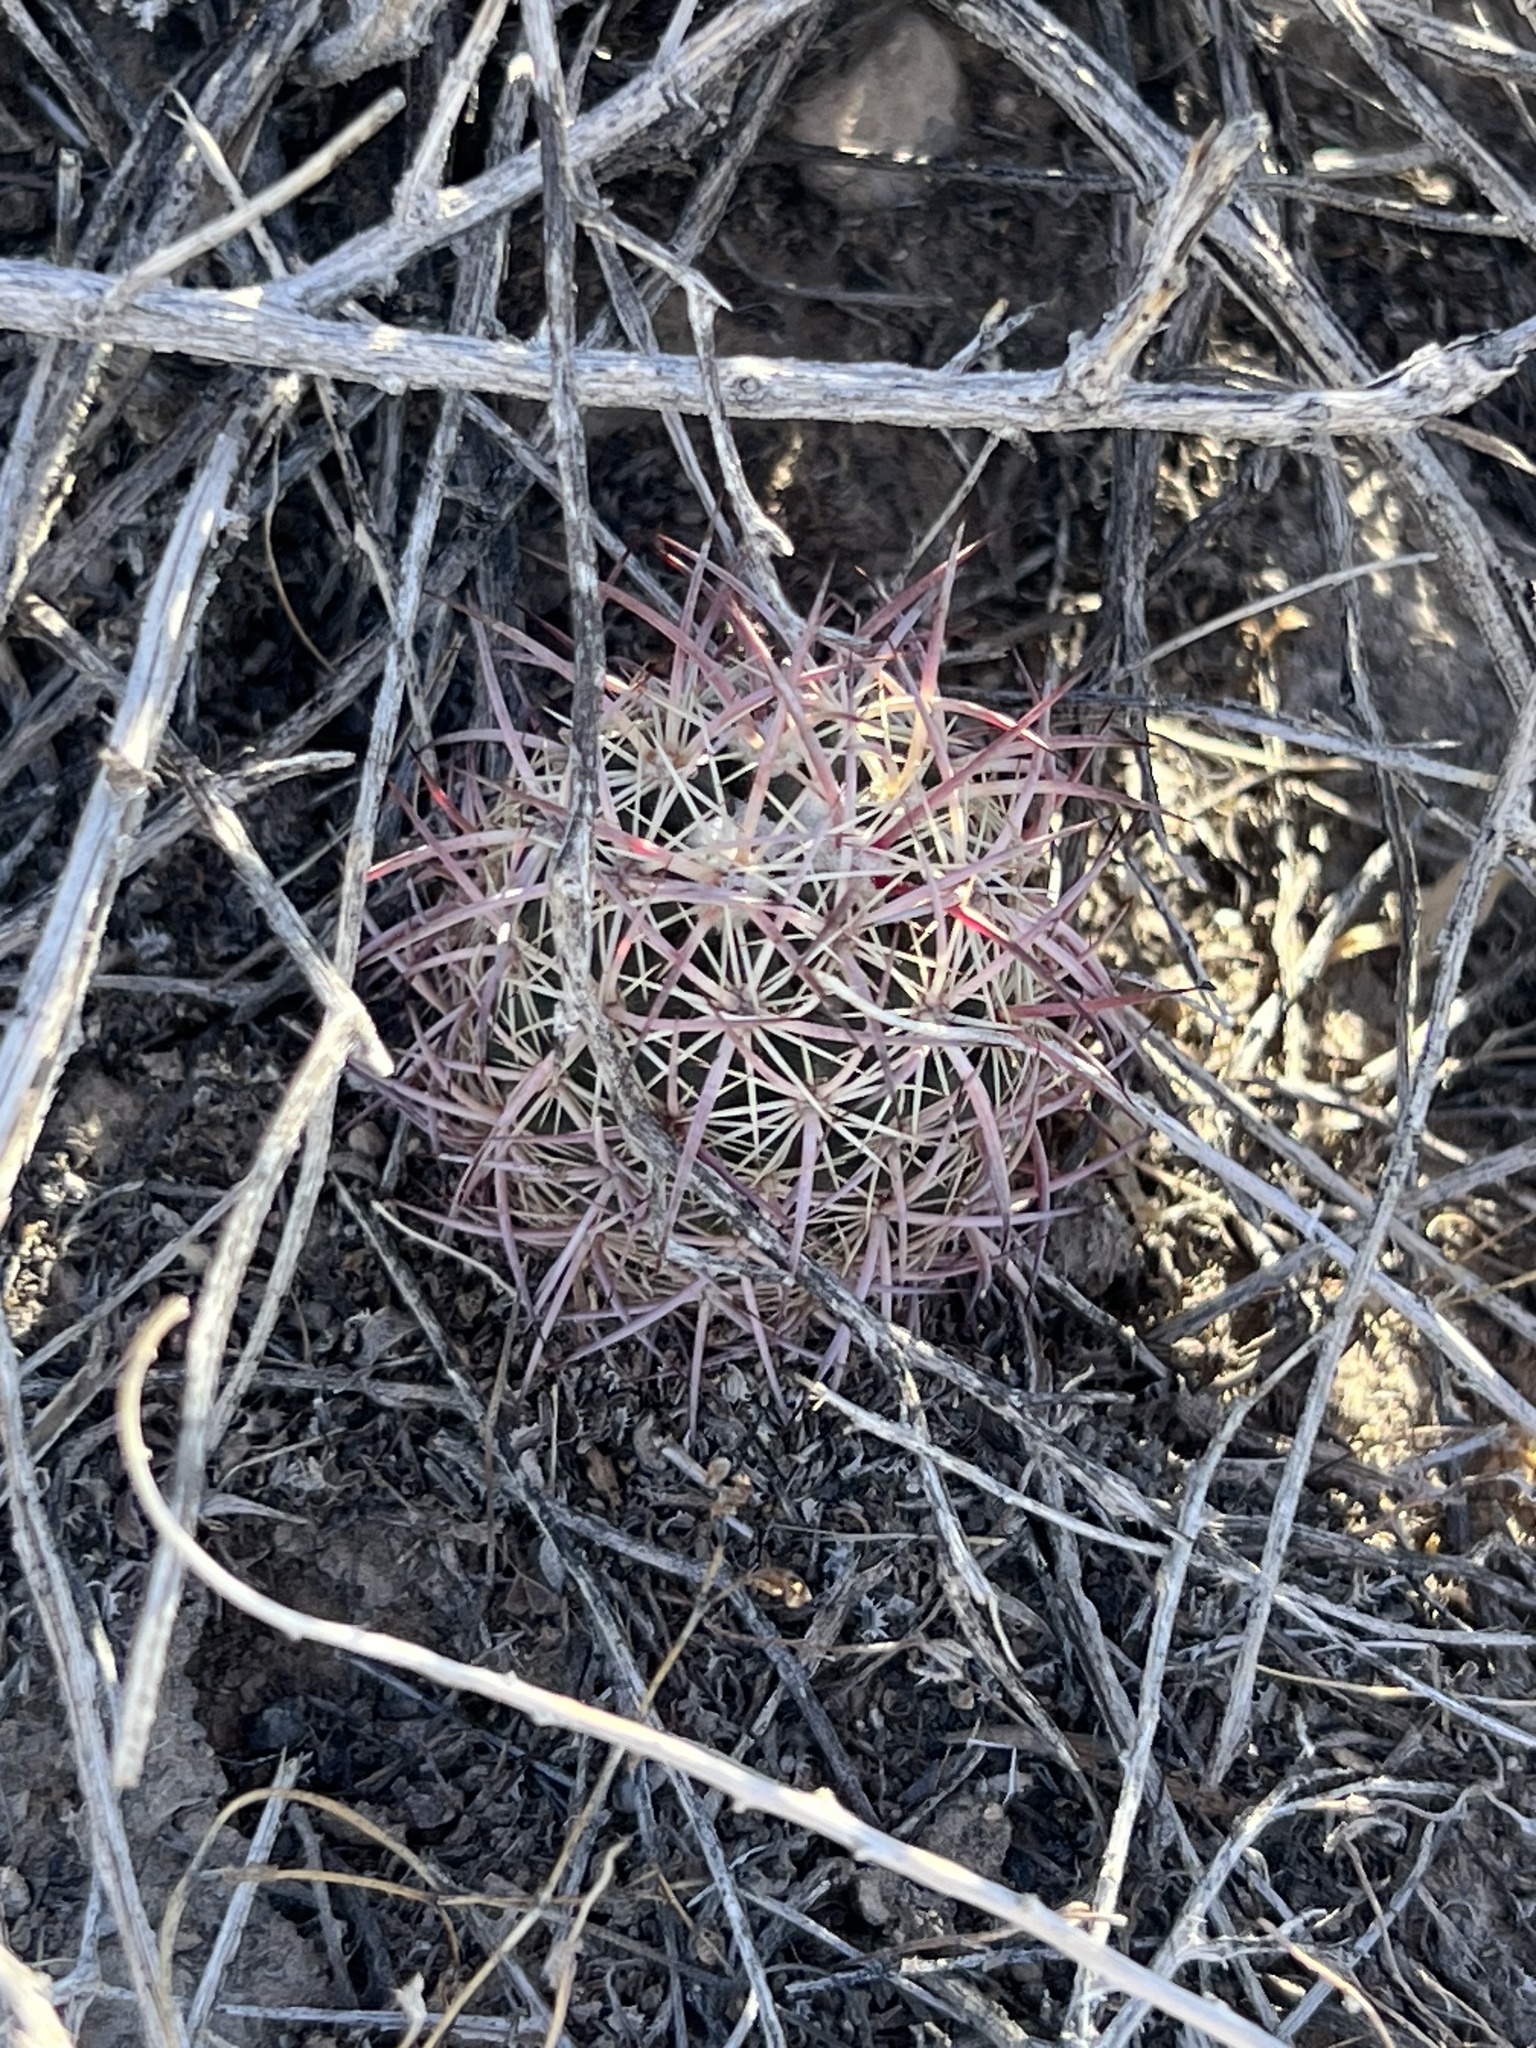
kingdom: Plantae
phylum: Tracheophyta
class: Magnoliopsida
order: Caryophyllales
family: Cactaceae
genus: Sclerocactus
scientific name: Sclerocactus johnsonii
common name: Eight-spine fishhook cactus
